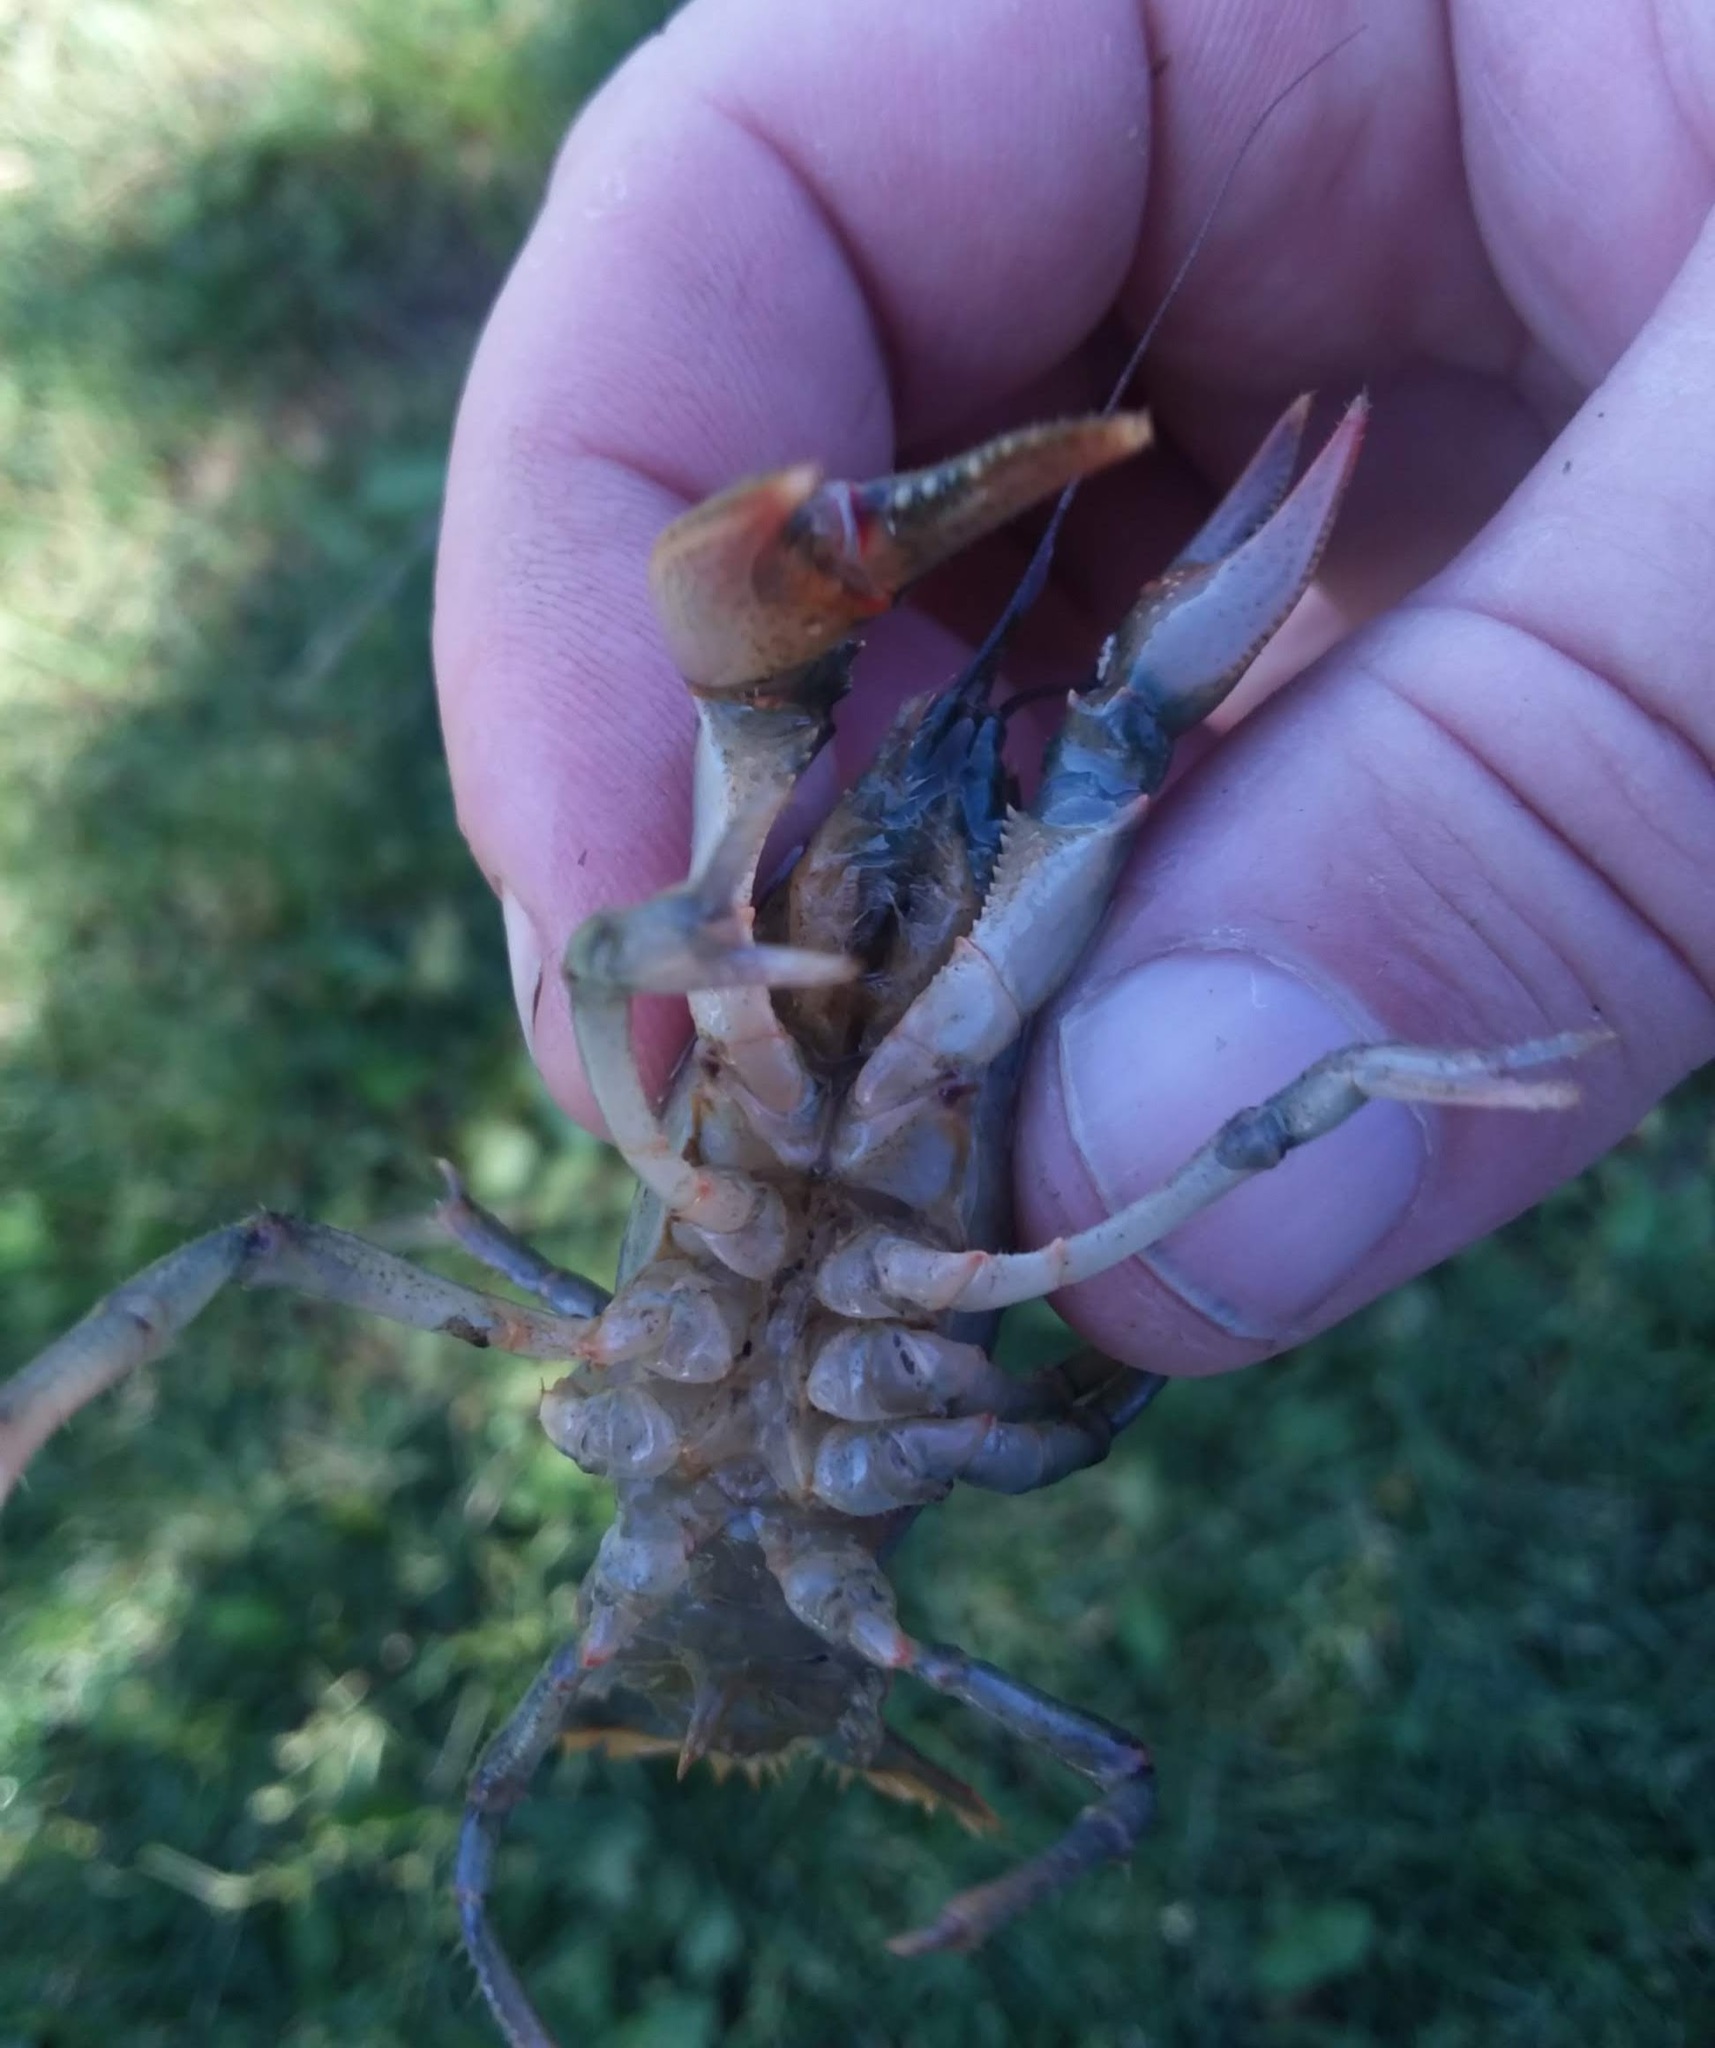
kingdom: Animalia
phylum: Arthropoda
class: Malacostraca
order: Decapoda
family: Cambaridae
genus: Lacunicambarus
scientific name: Lacunicambarus diogenes
